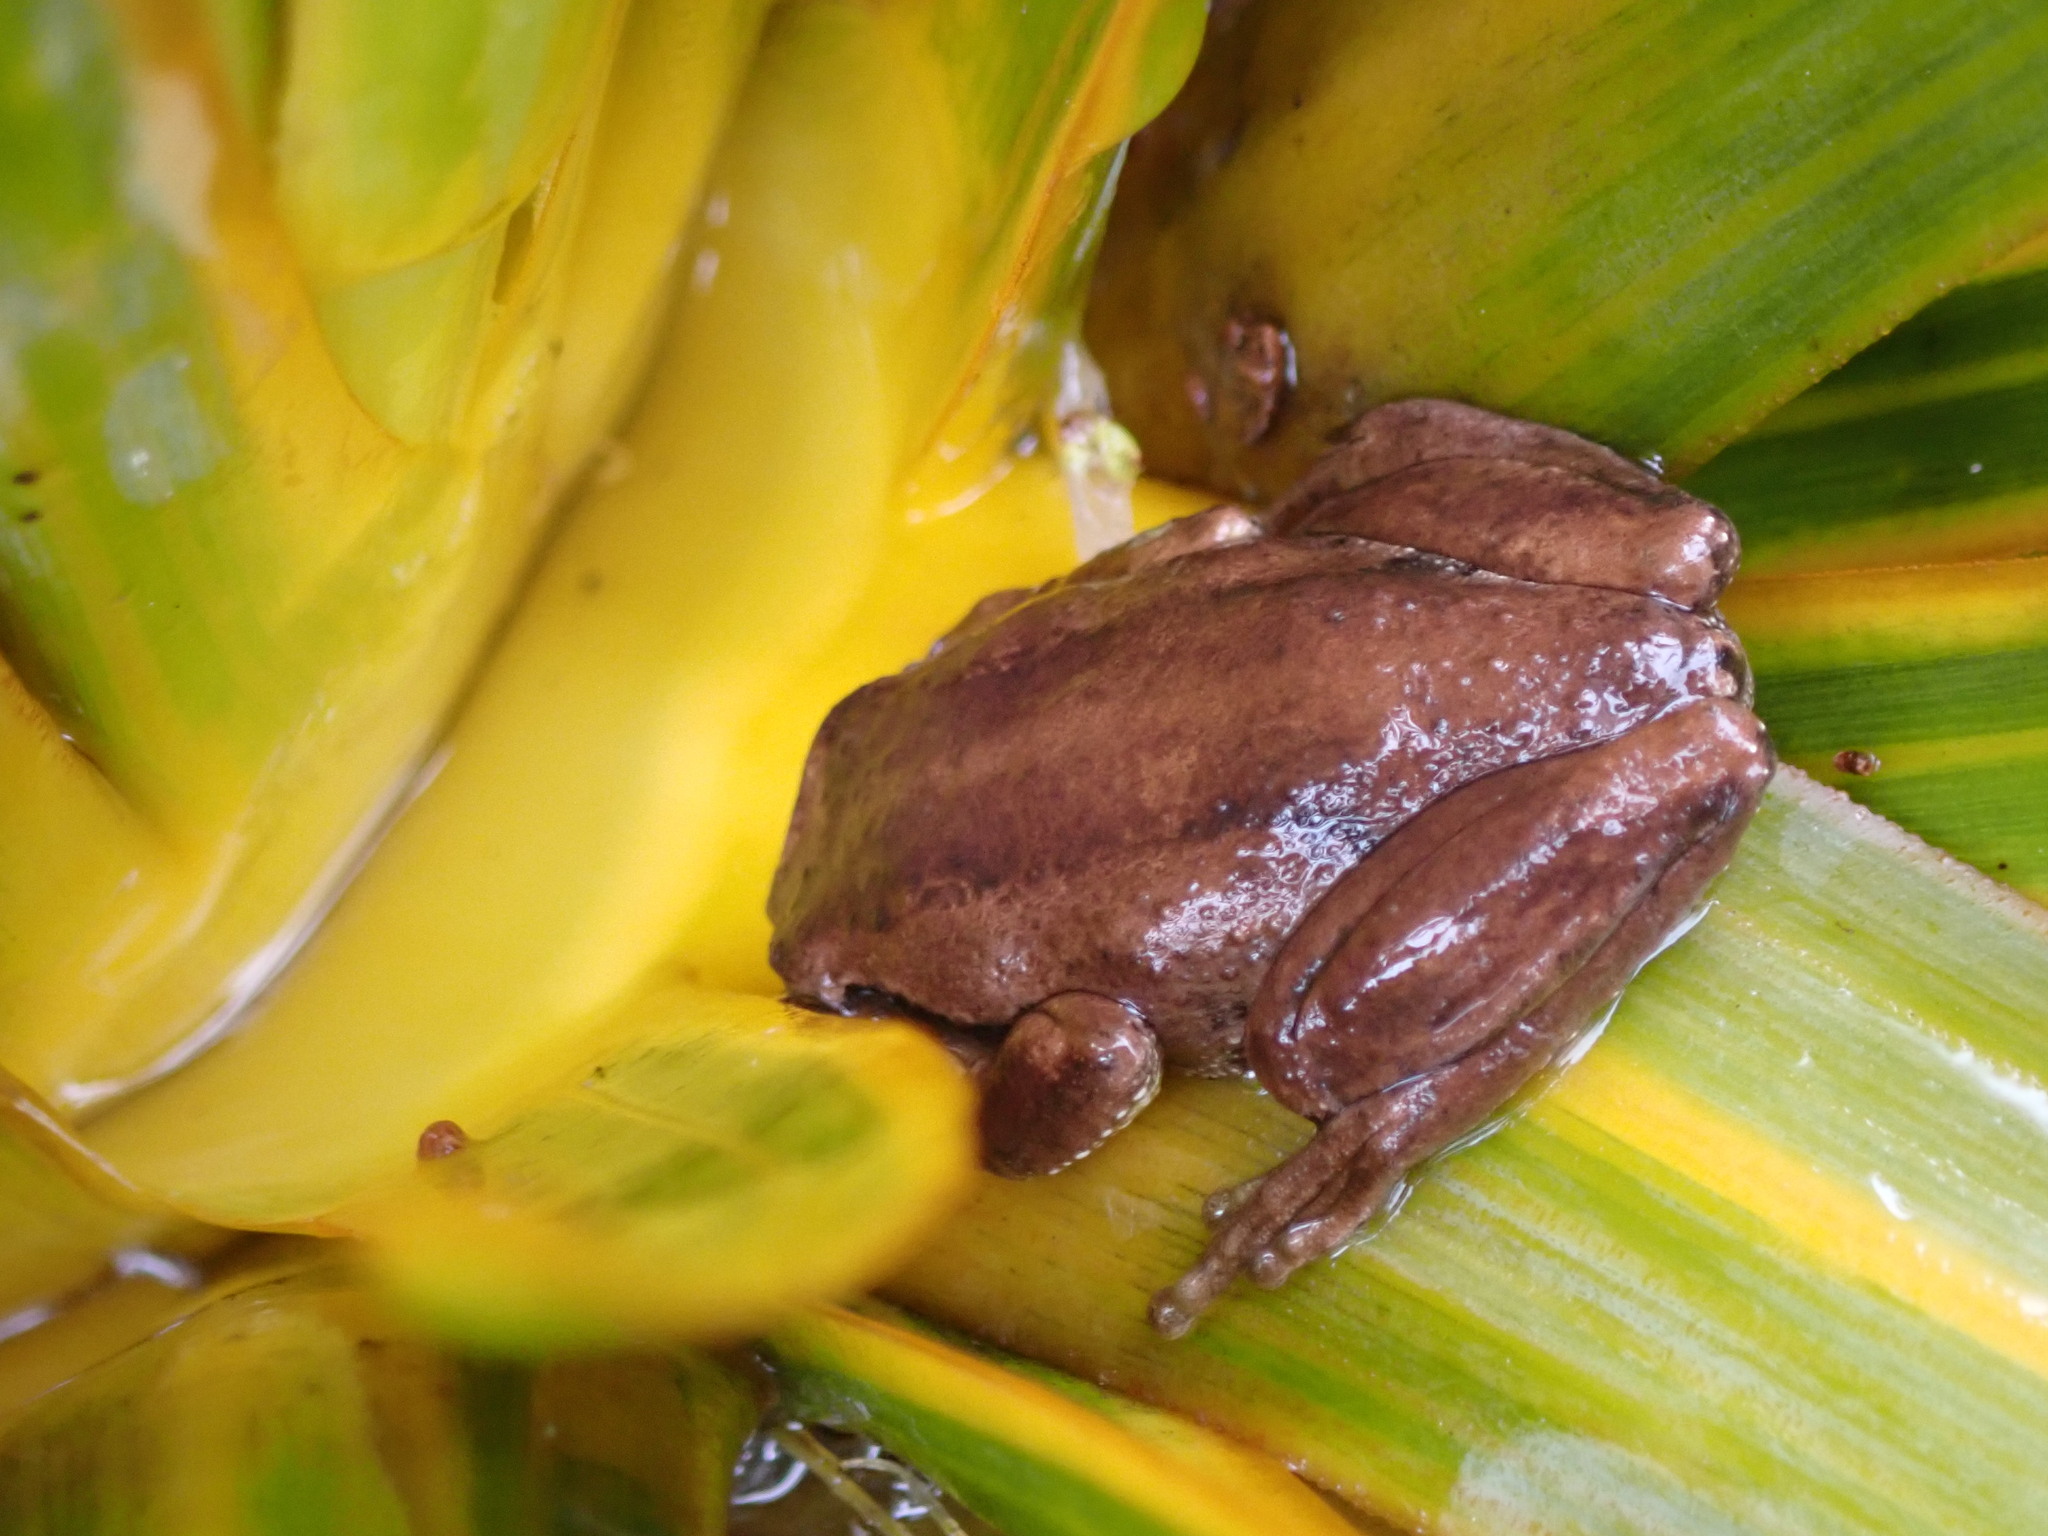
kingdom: Animalia
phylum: Chordata
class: Amphibia
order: Anura
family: Pelodryadidae
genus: Litoria
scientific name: Litoria ewingii
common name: Southern brown tree frog
